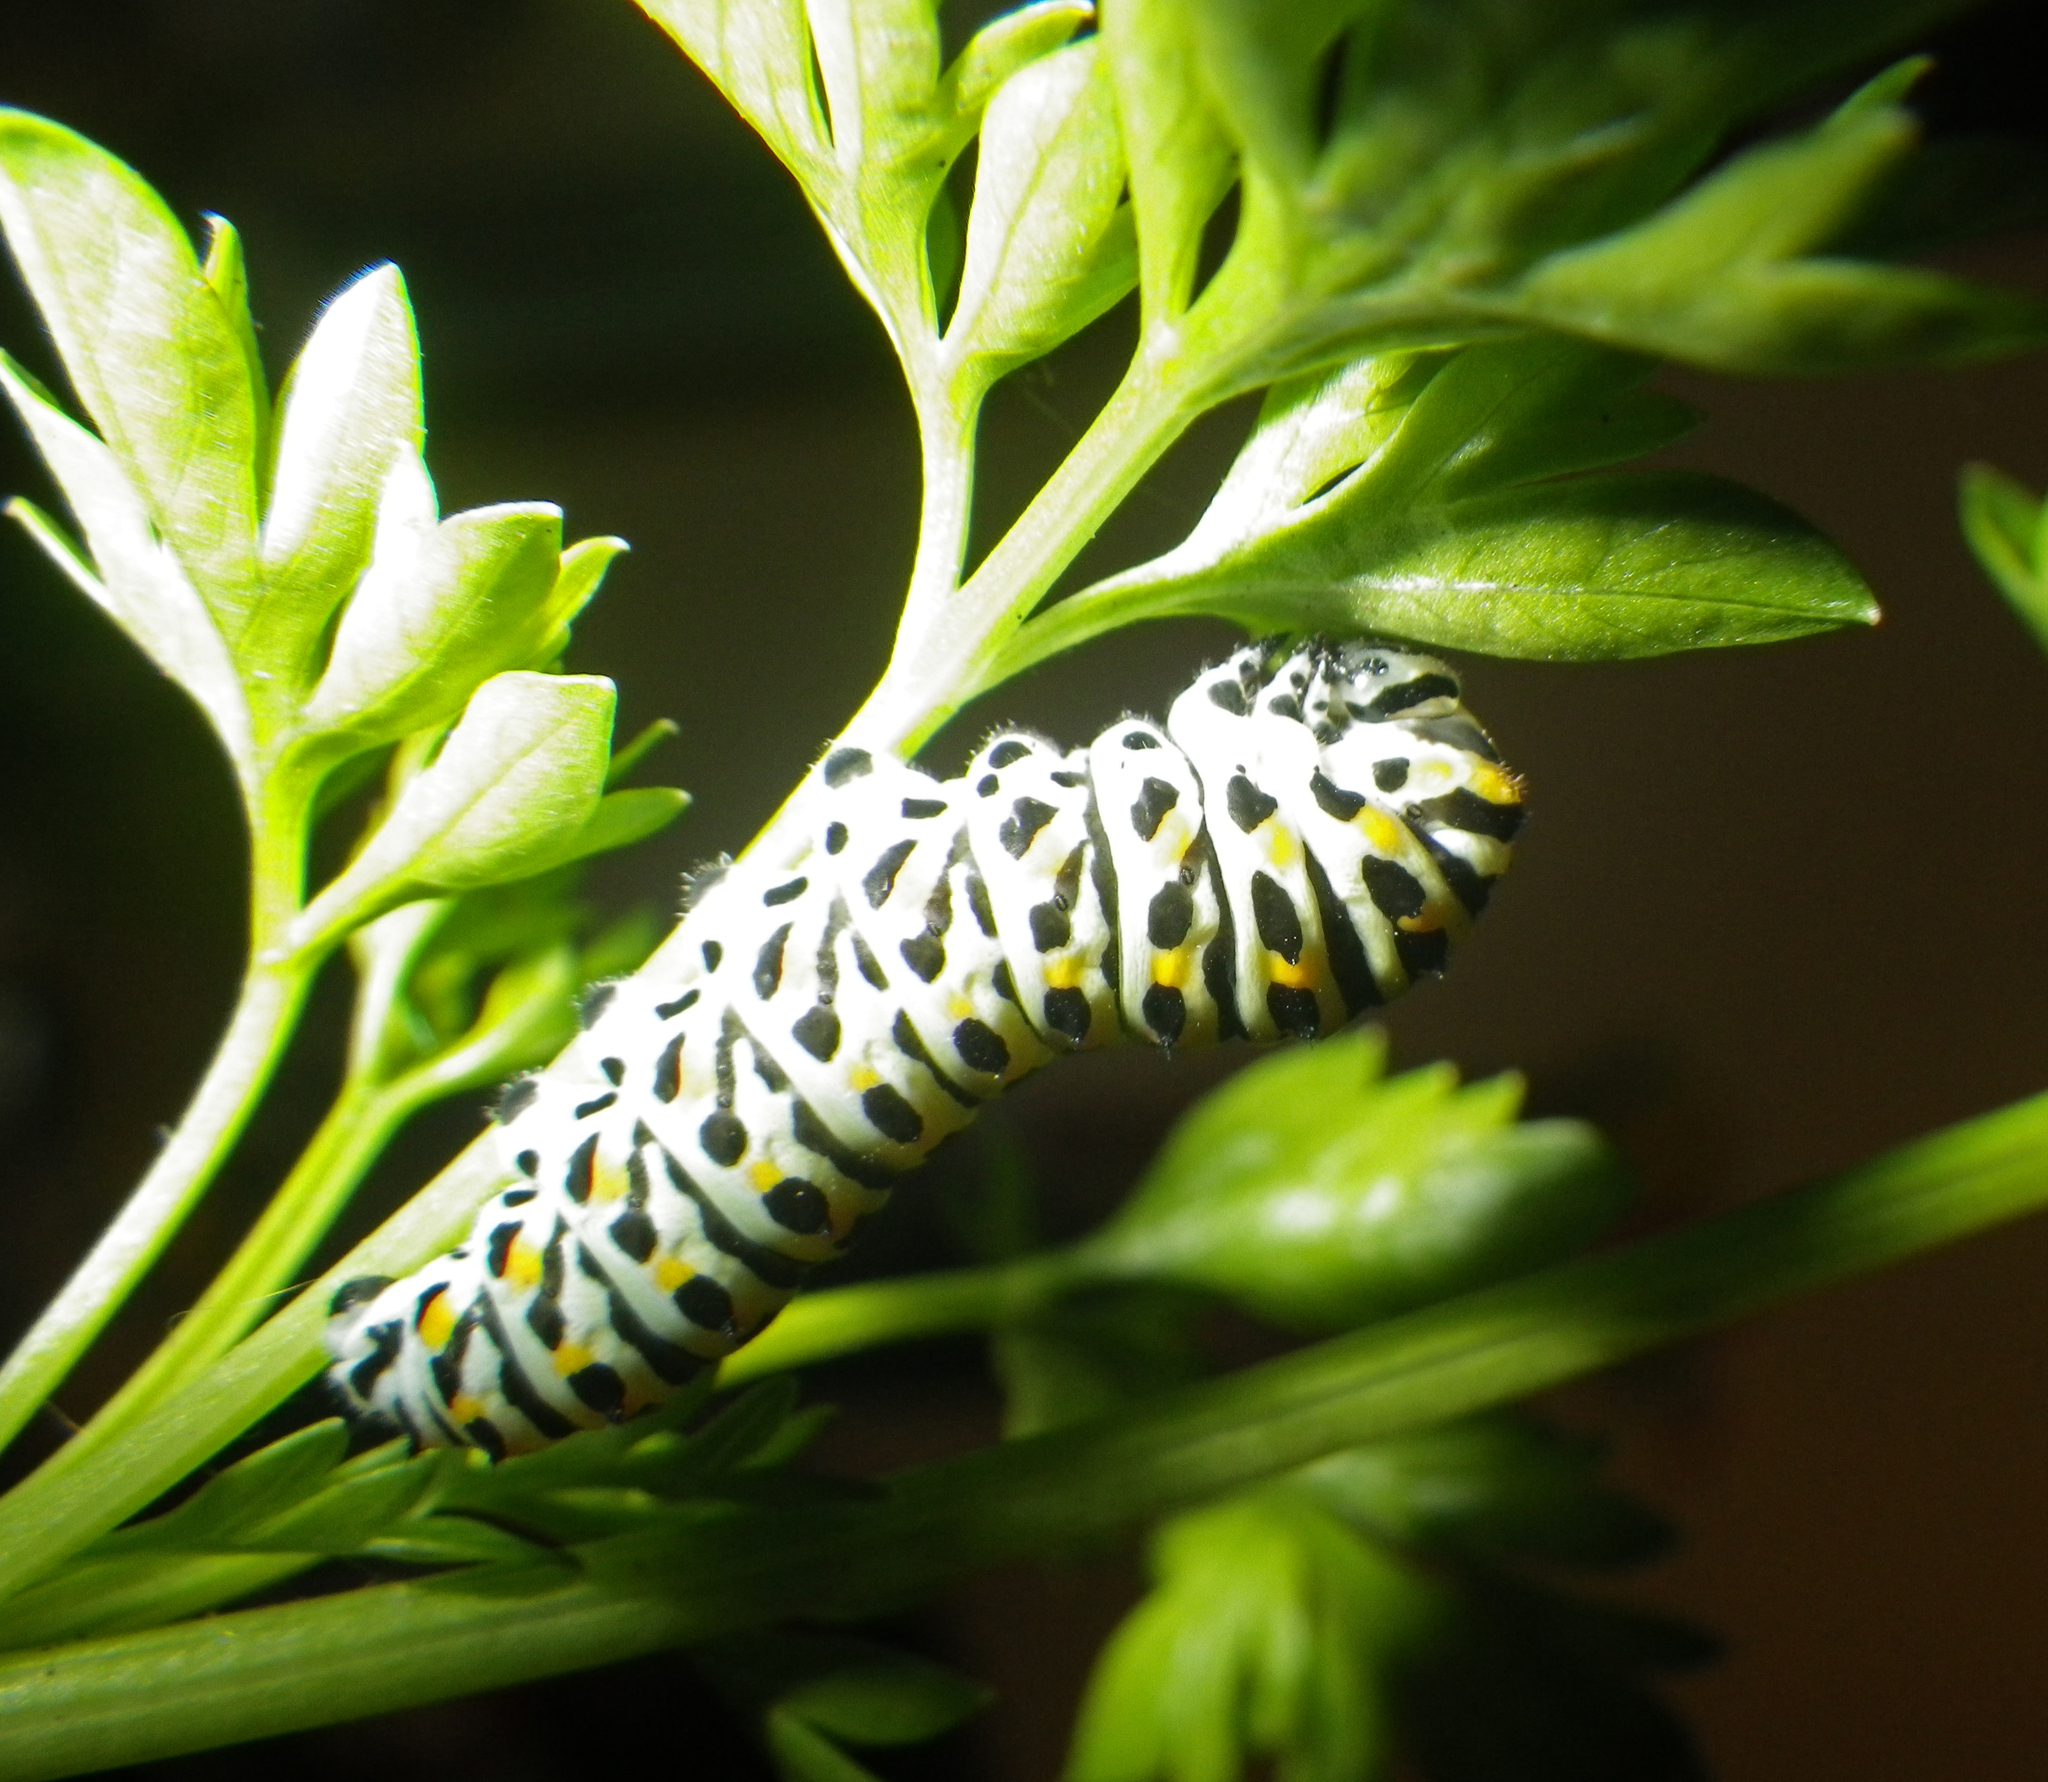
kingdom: Animalia
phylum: Arthropoda
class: Insecta
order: Lepidoptera
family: Papilionidae
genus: Papilio
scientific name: Papilio machaon
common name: Swallowtail
